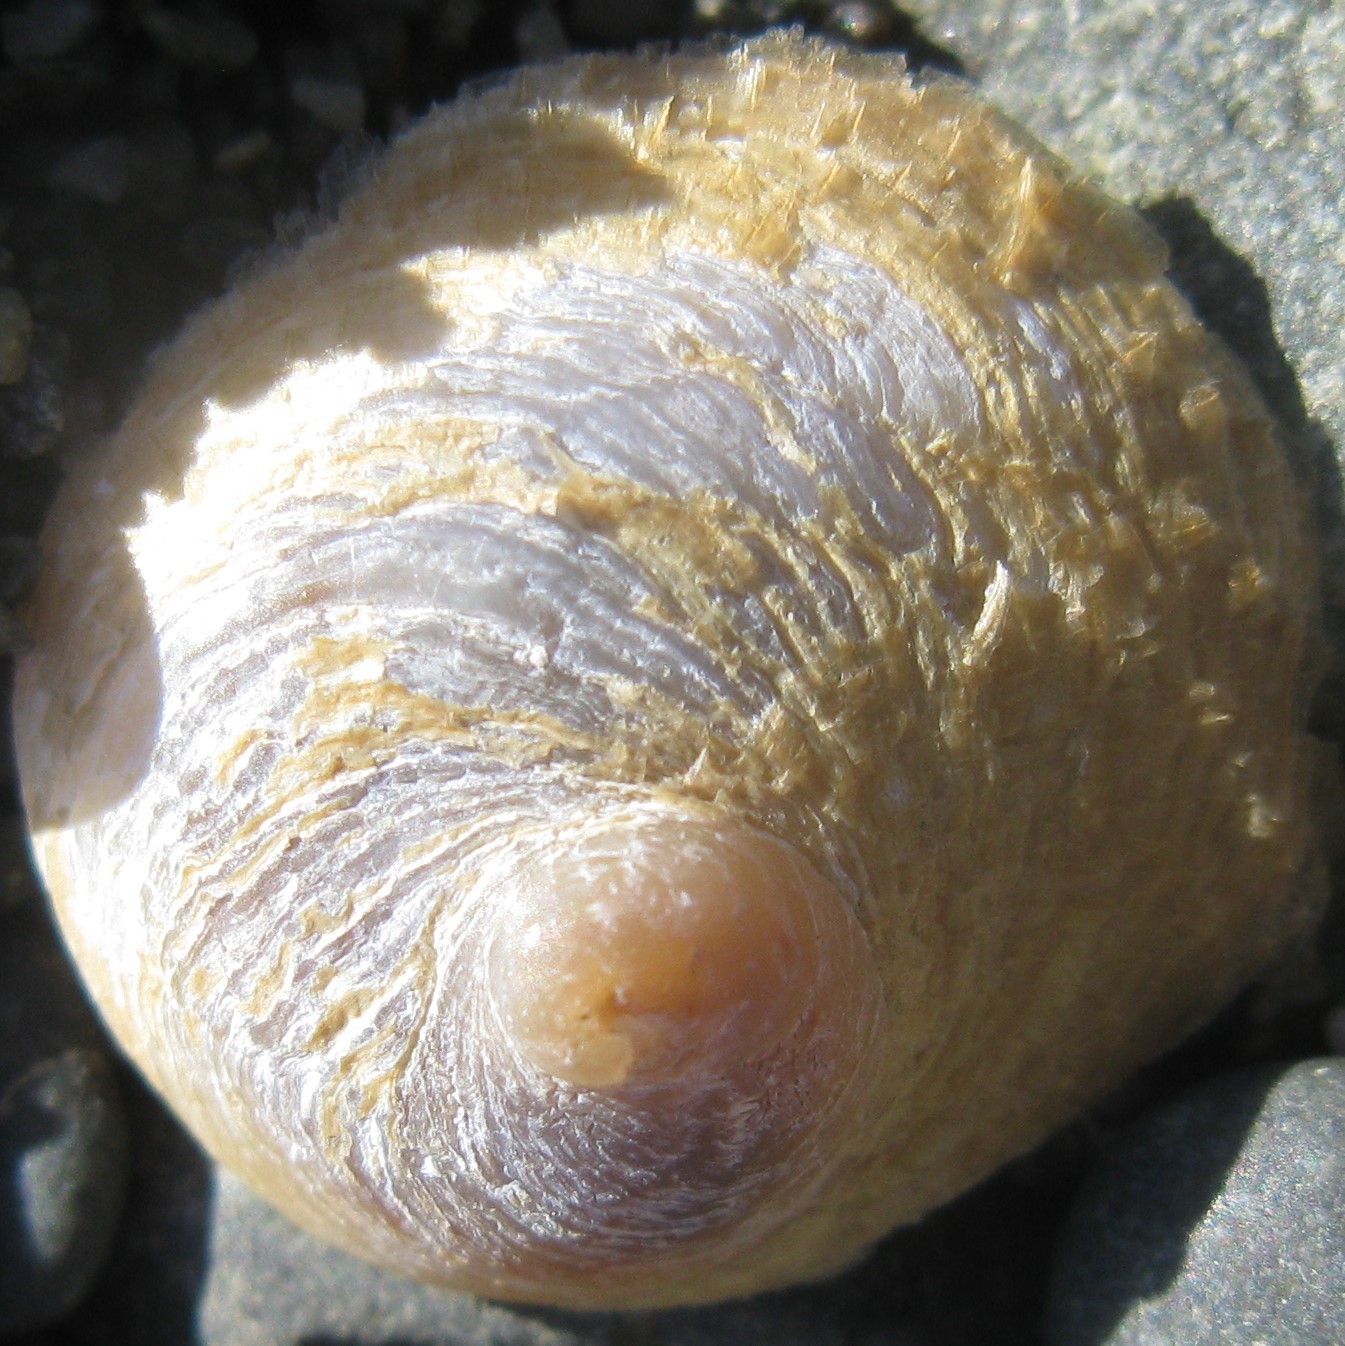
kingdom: Animalia
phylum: Mollusca
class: Gastropoda
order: Littorinimorpha
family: Calyptraeidae
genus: Sigapatella
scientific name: Sigapatella novaezelandiae
